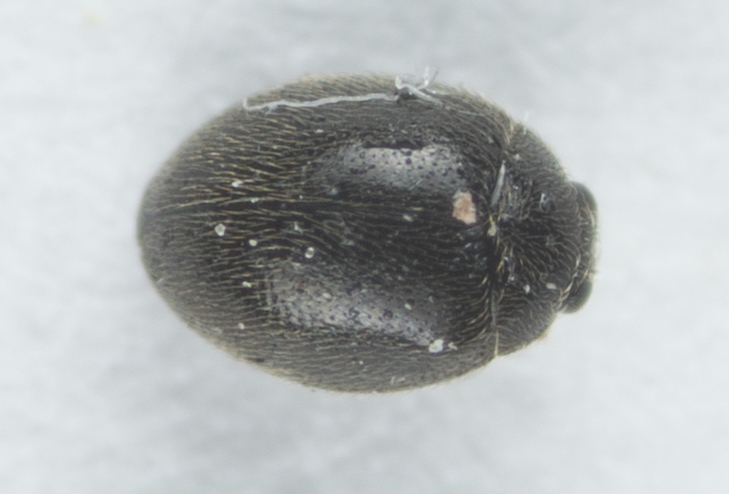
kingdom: Animalia
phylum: Arthropoda
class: Insecta
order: Coleoptera
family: Coccinellidae
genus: Stethorus
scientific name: Stethorus punctum
